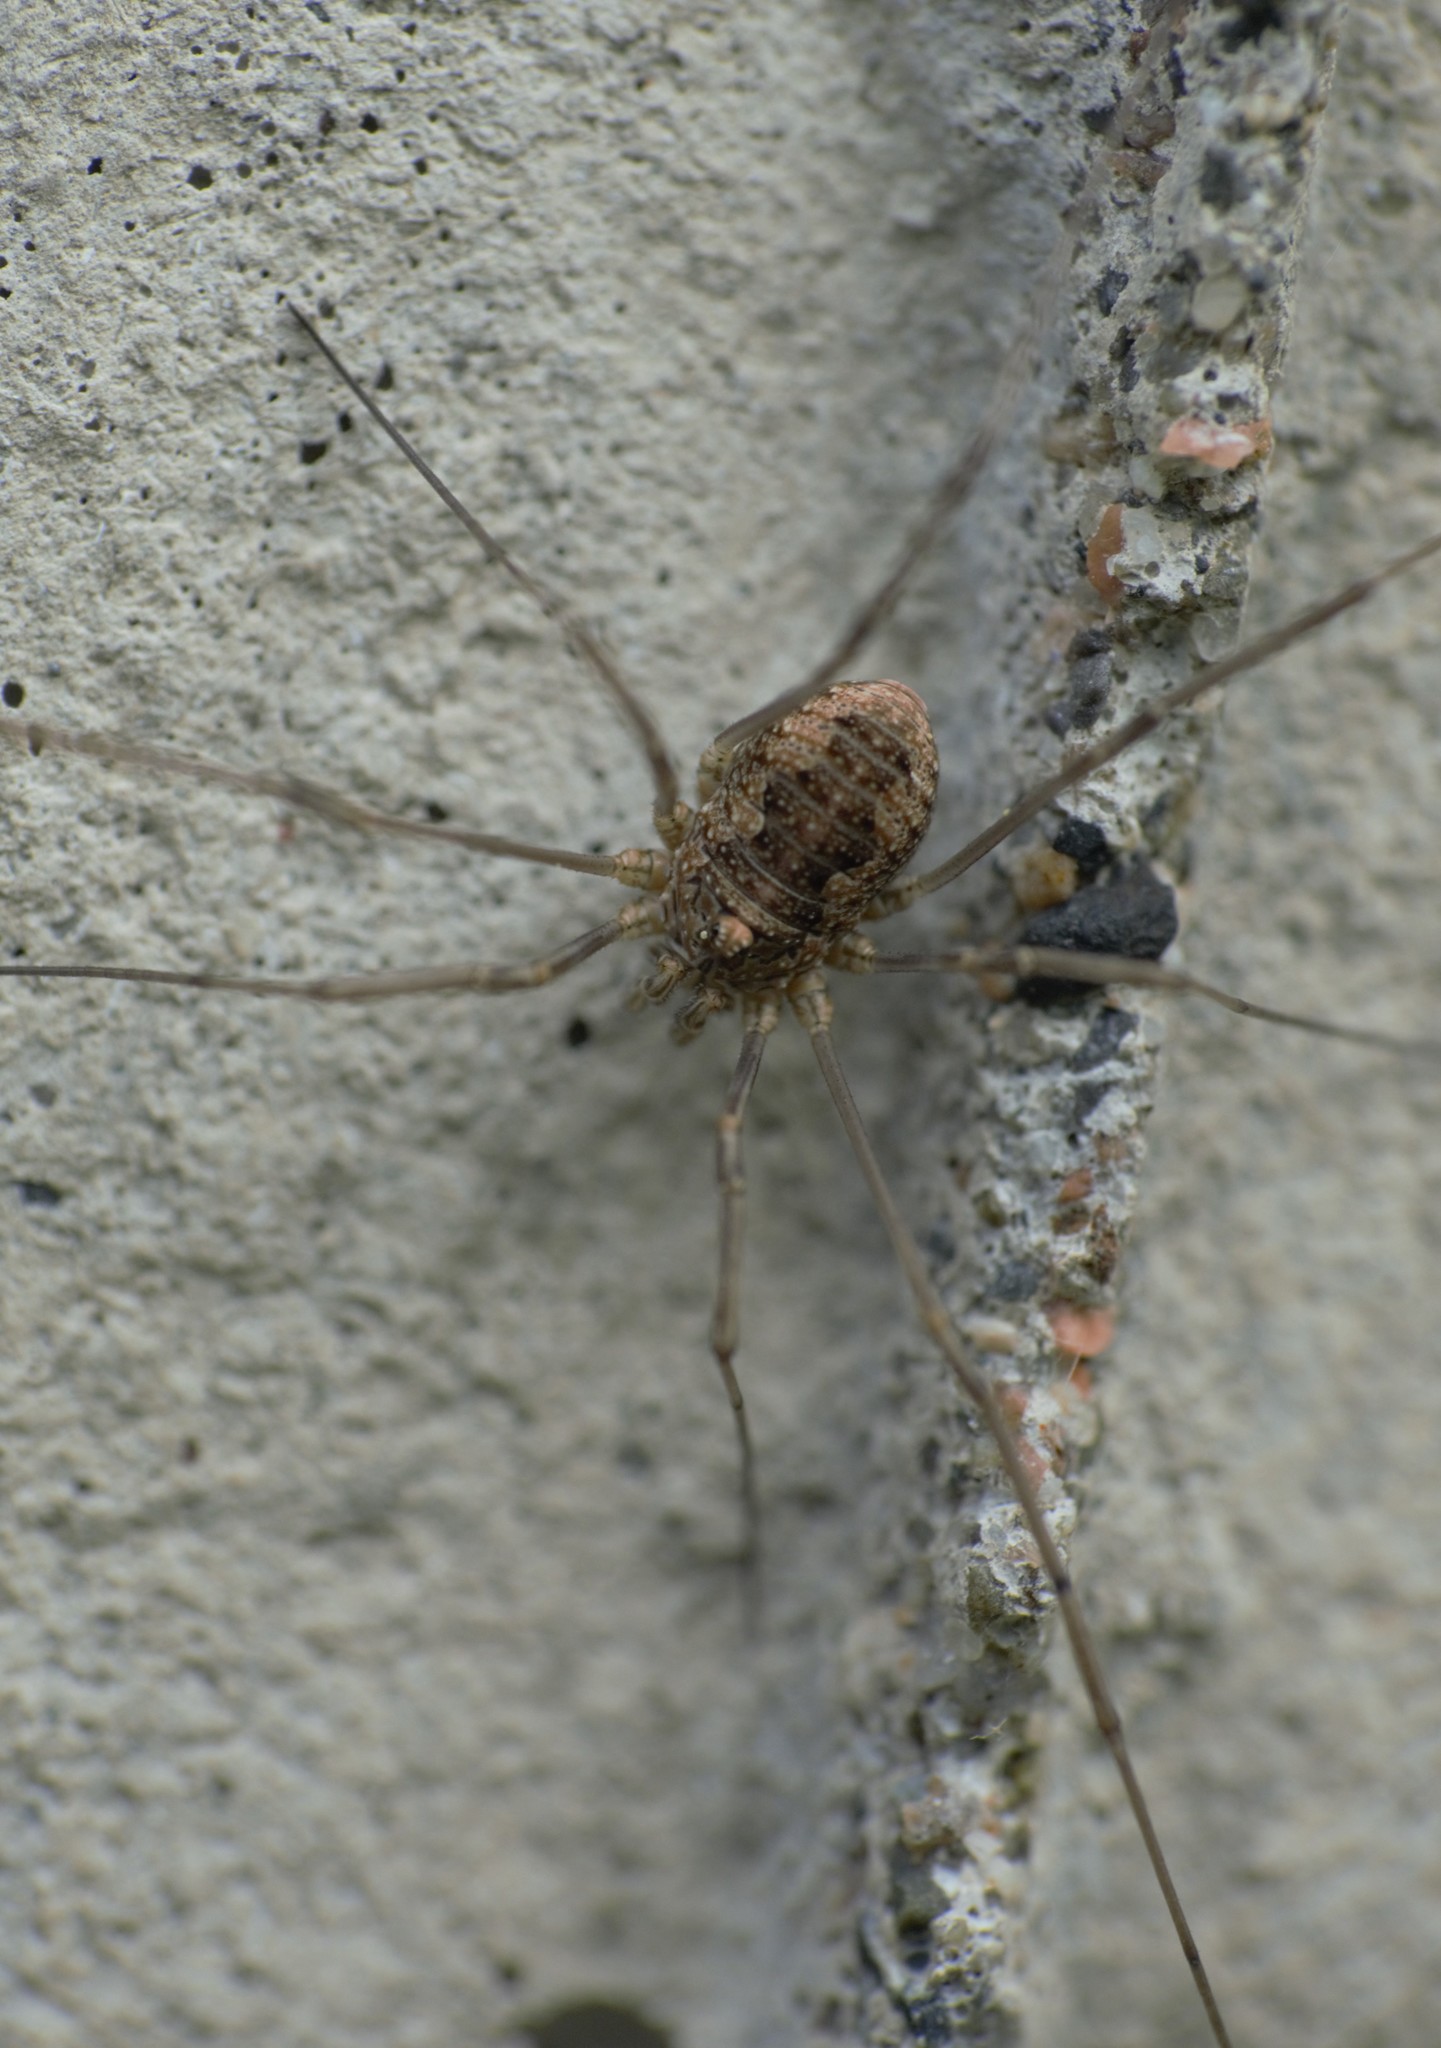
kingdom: Animalia
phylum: Arthropoda
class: Arachnida
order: Opiliones
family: Phalangiidae
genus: Phalangium
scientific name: Phalangium opilio
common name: Daddy longleg
